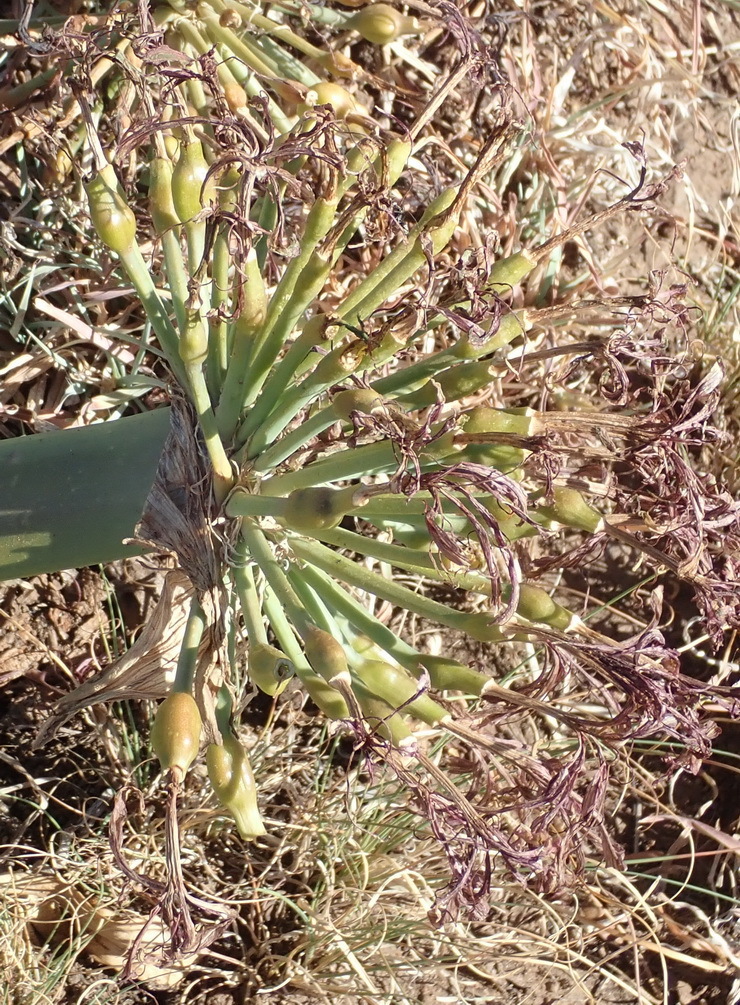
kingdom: Plantae
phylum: Tracheophyta
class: Liliopsida
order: Asparagales
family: Amaryllidaceae
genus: Ammocharis
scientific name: Ammocharis coranica
